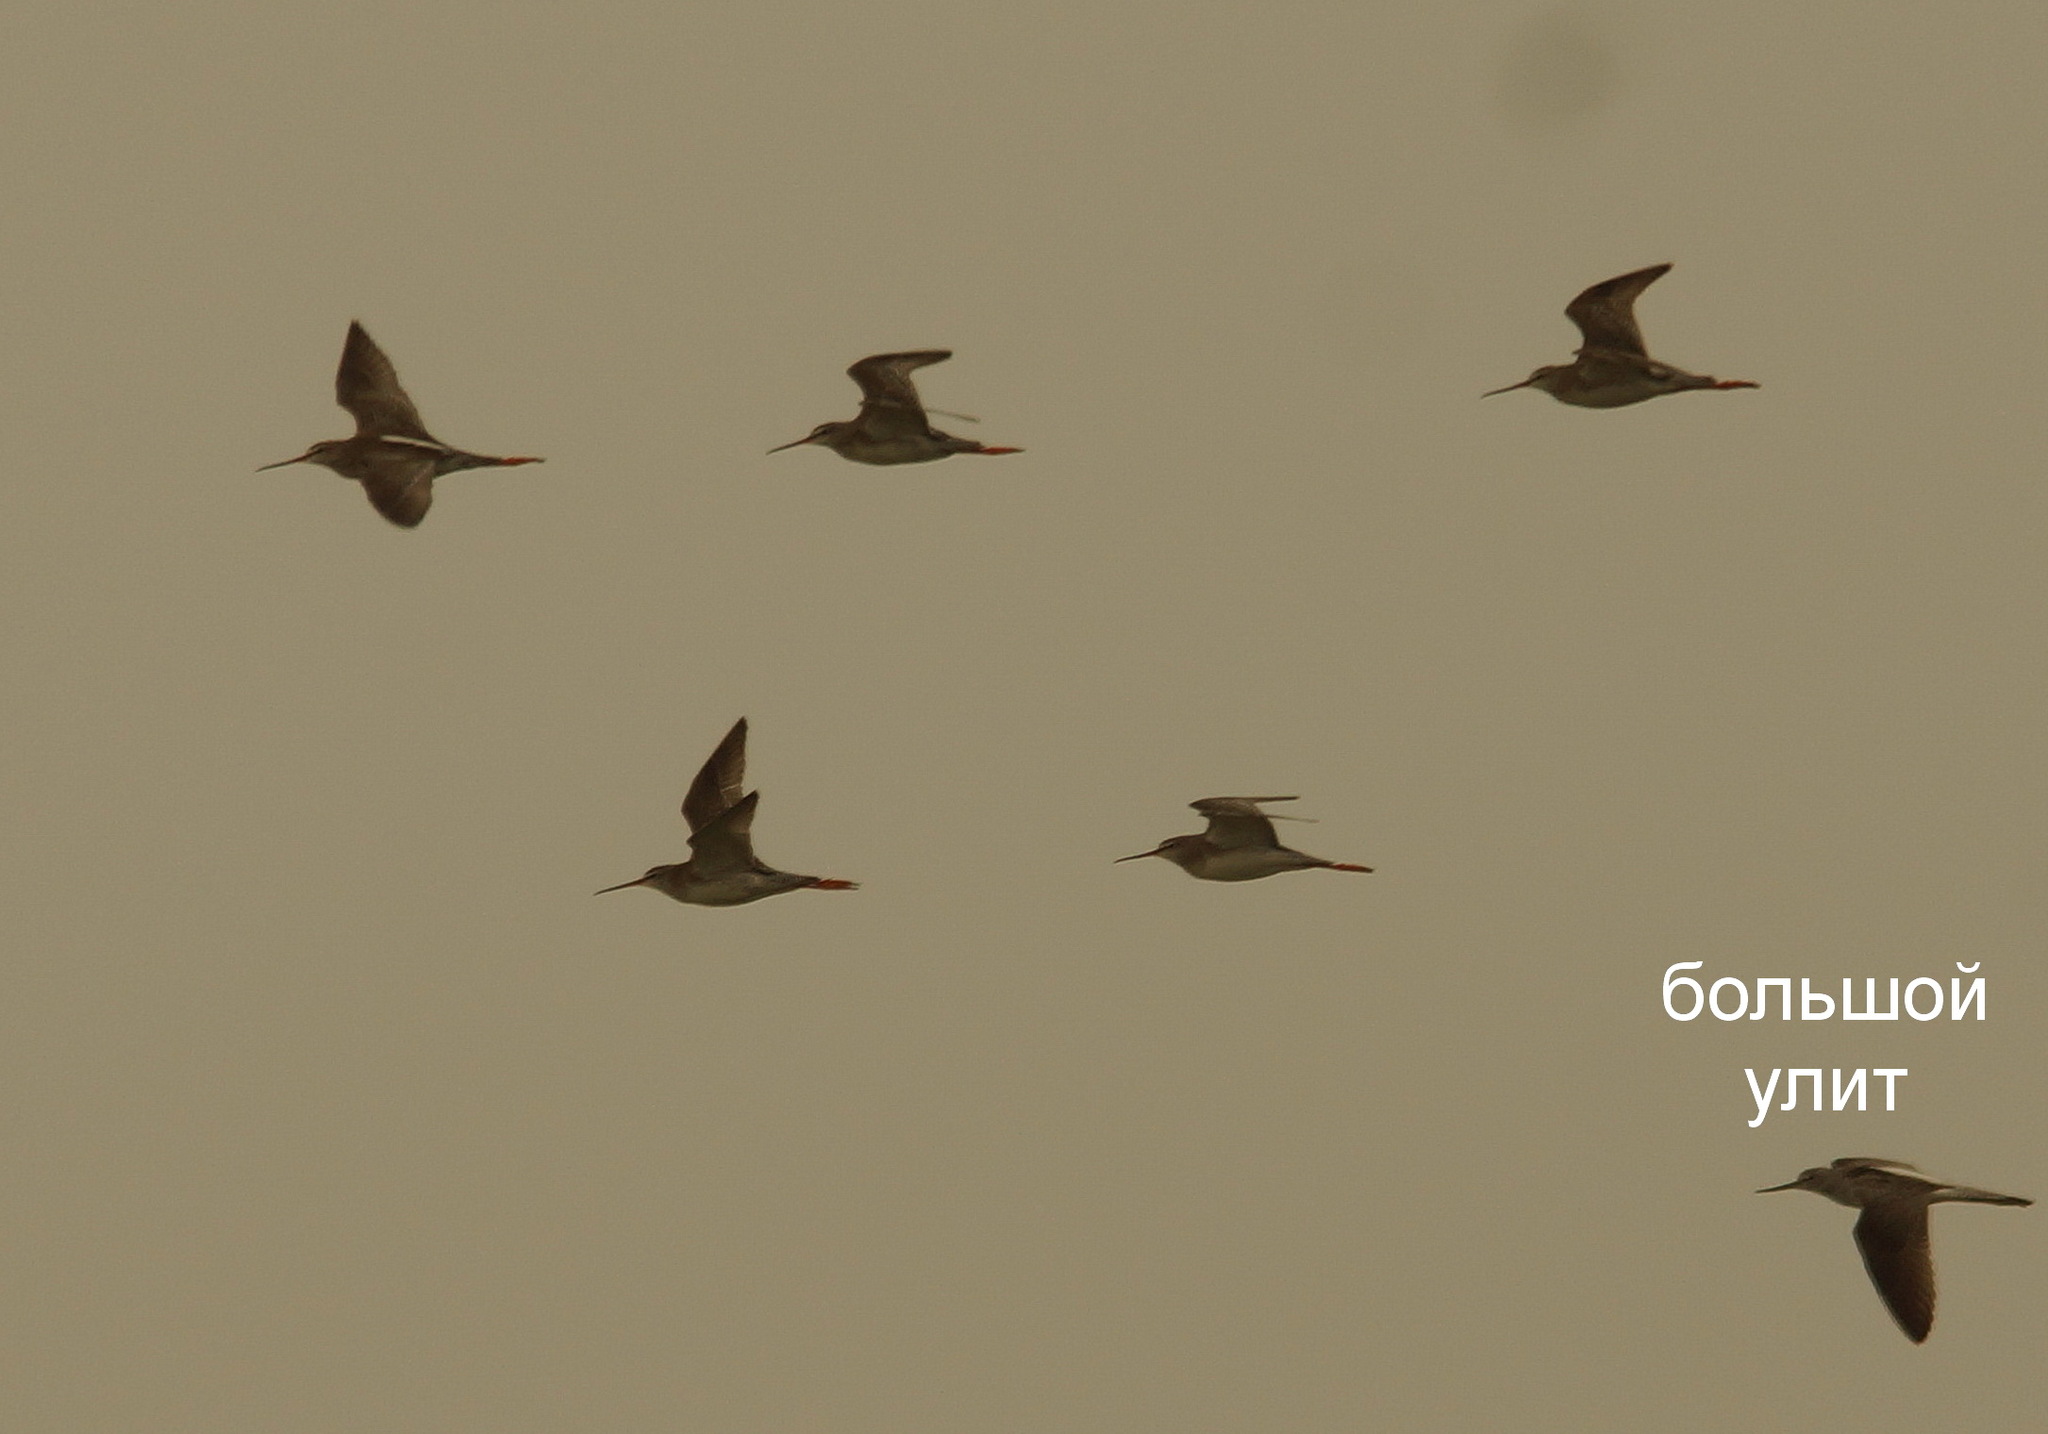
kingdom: Animalia
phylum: Chordata
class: Aves
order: Charadriiformes
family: Scolopacidae
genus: Tringa
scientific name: Tringa nebularia
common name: Common greenshank
